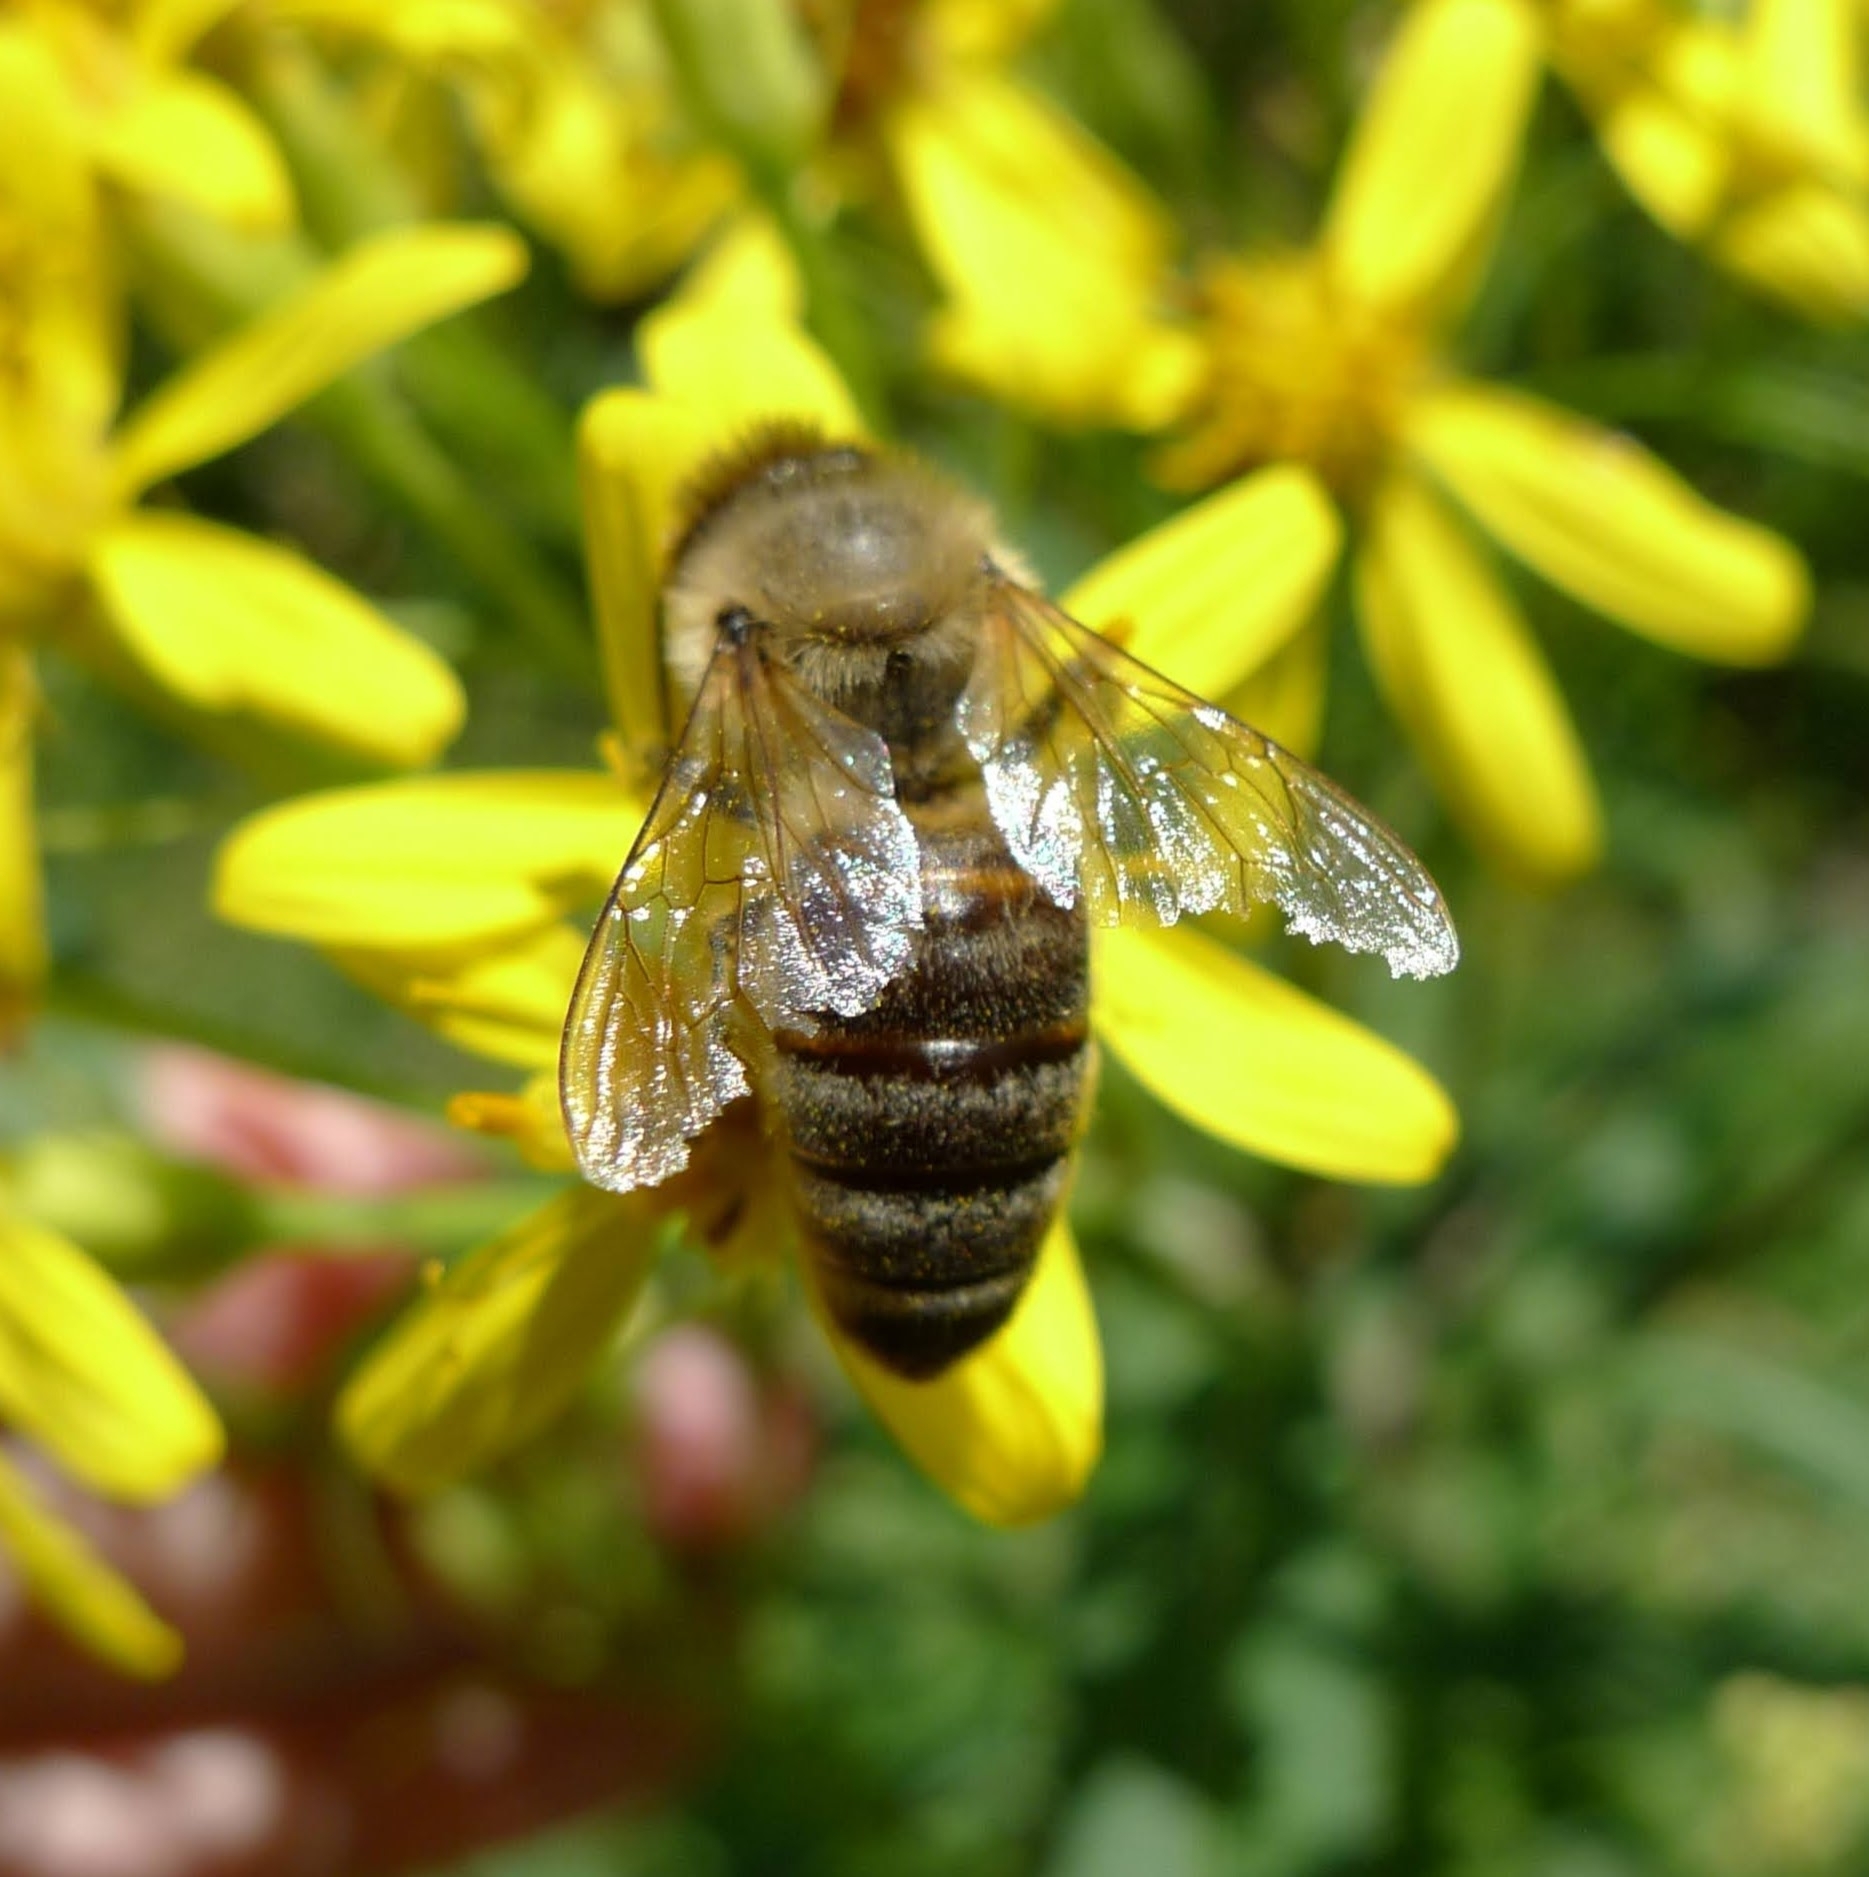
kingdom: Animalia
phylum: Arthropoda
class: Insecta
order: Hymenoptera
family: Apidae
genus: Apis
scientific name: Apis mellifera
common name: Honey bee
